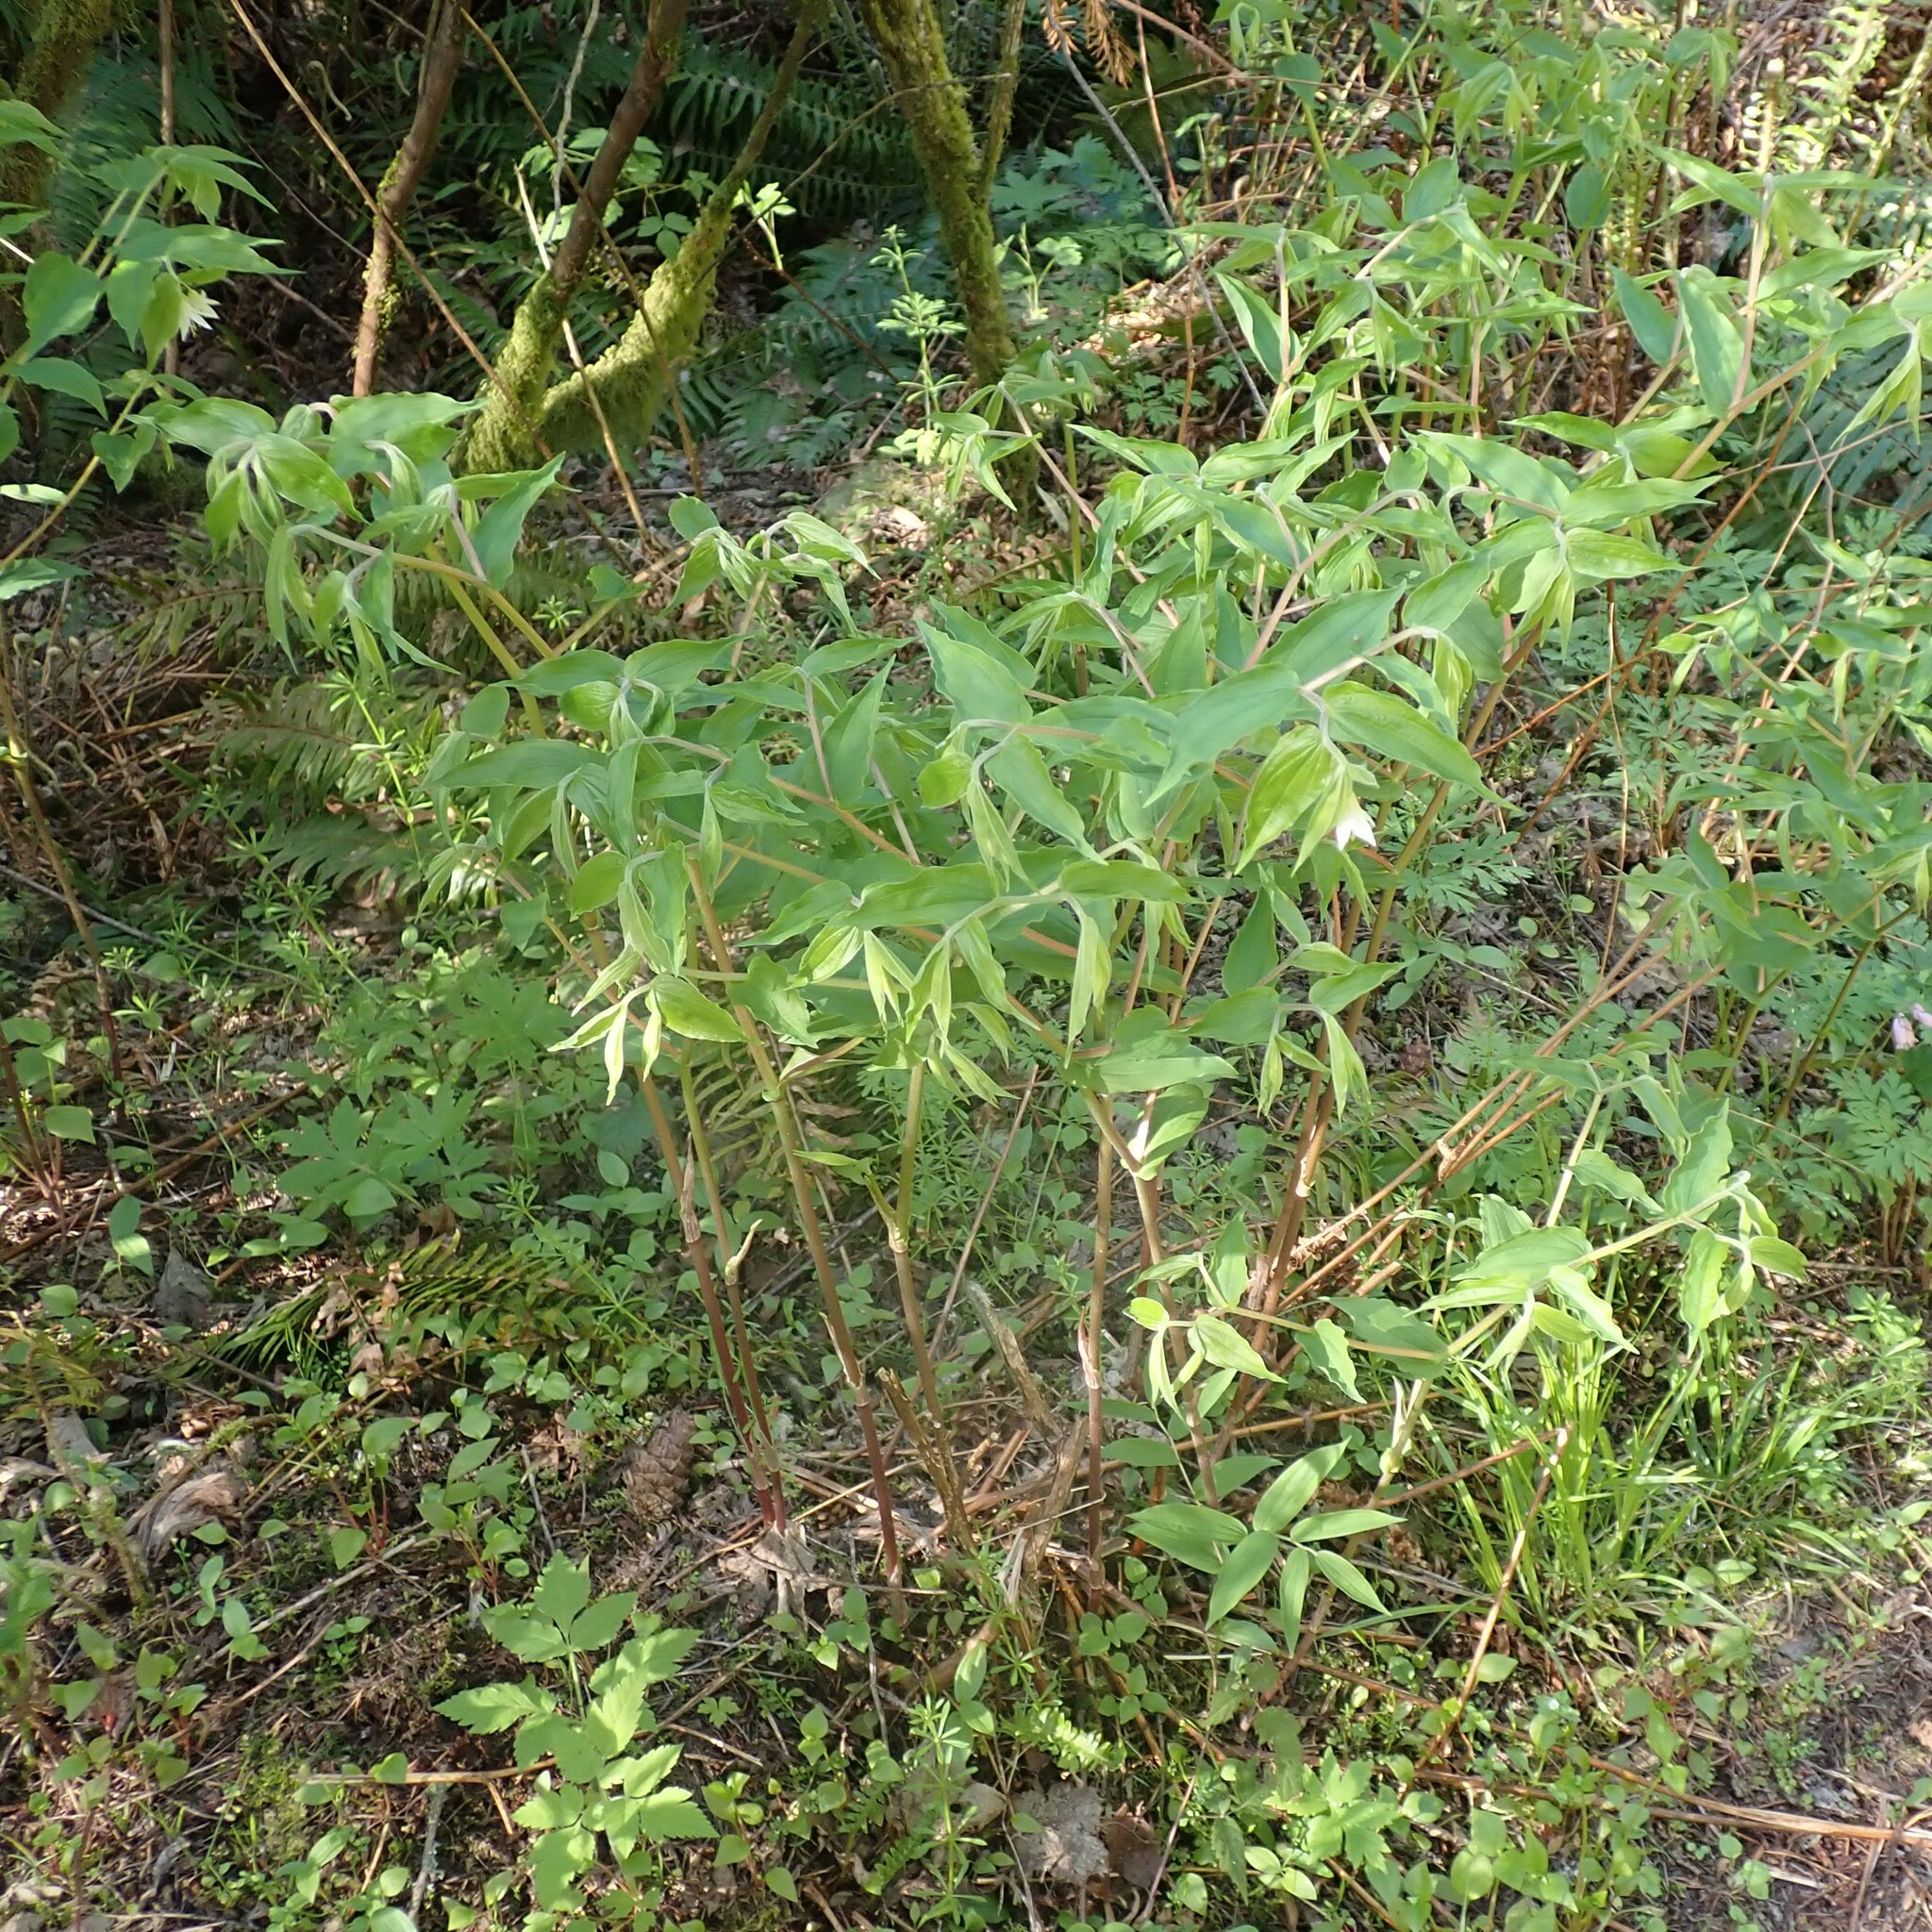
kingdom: Plantae
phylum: Tracheophyta
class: Liliopsida
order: Liliales
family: Liliaceae
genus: Prosartes
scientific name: Prosartes hookeri
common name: Fairy-bells
